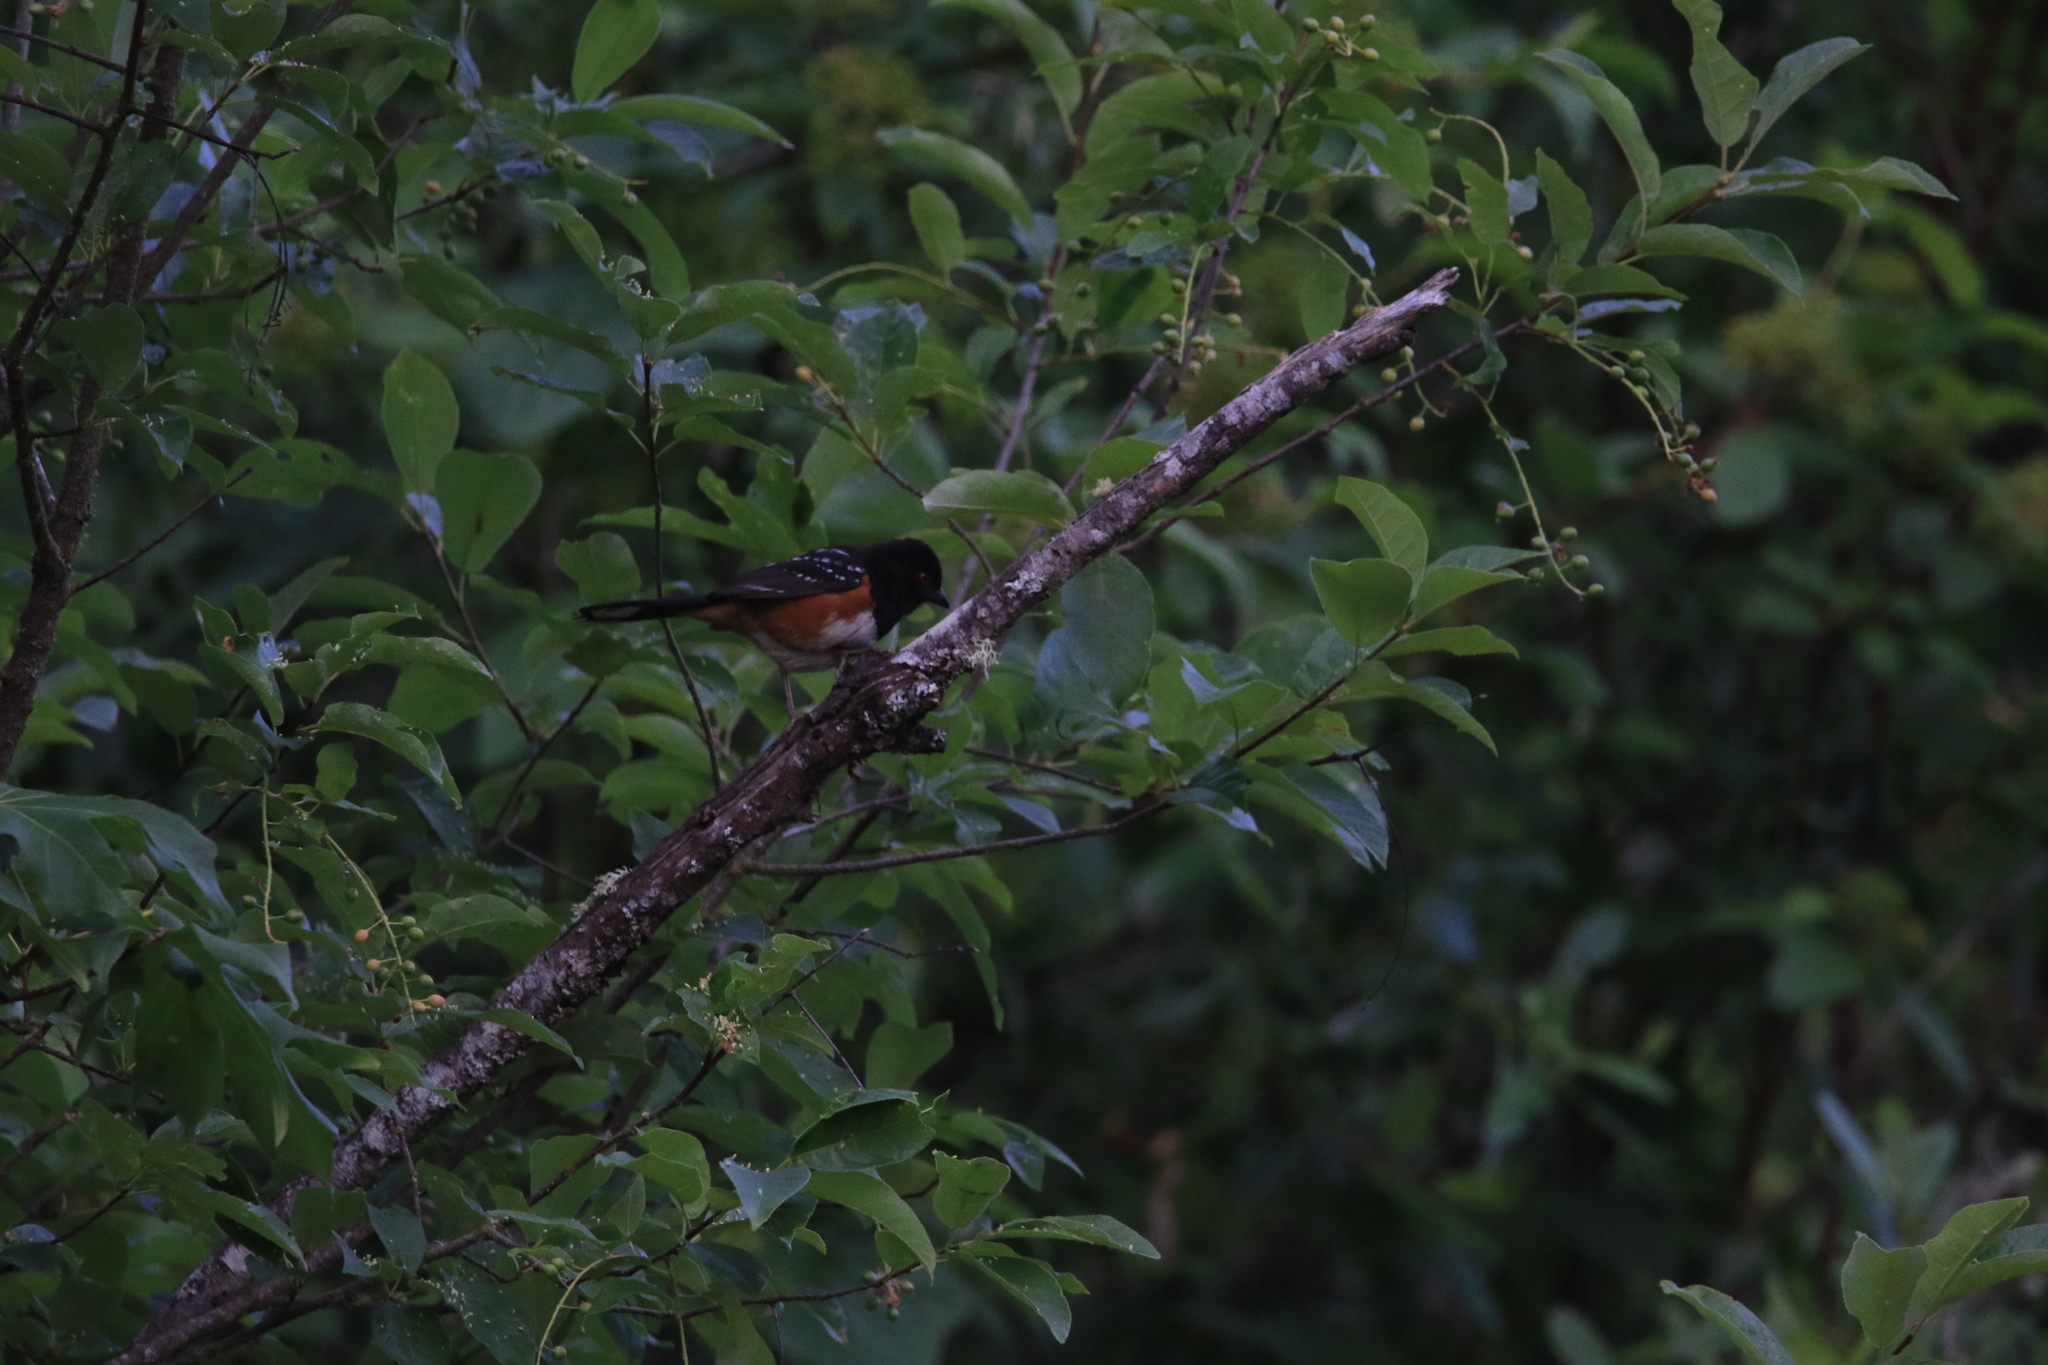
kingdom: Animalia
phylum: Chordata
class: Aves
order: Passeriformes
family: Passerellidae
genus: Pipilo
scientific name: Pipilo maculatus
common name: Spotted towhee
